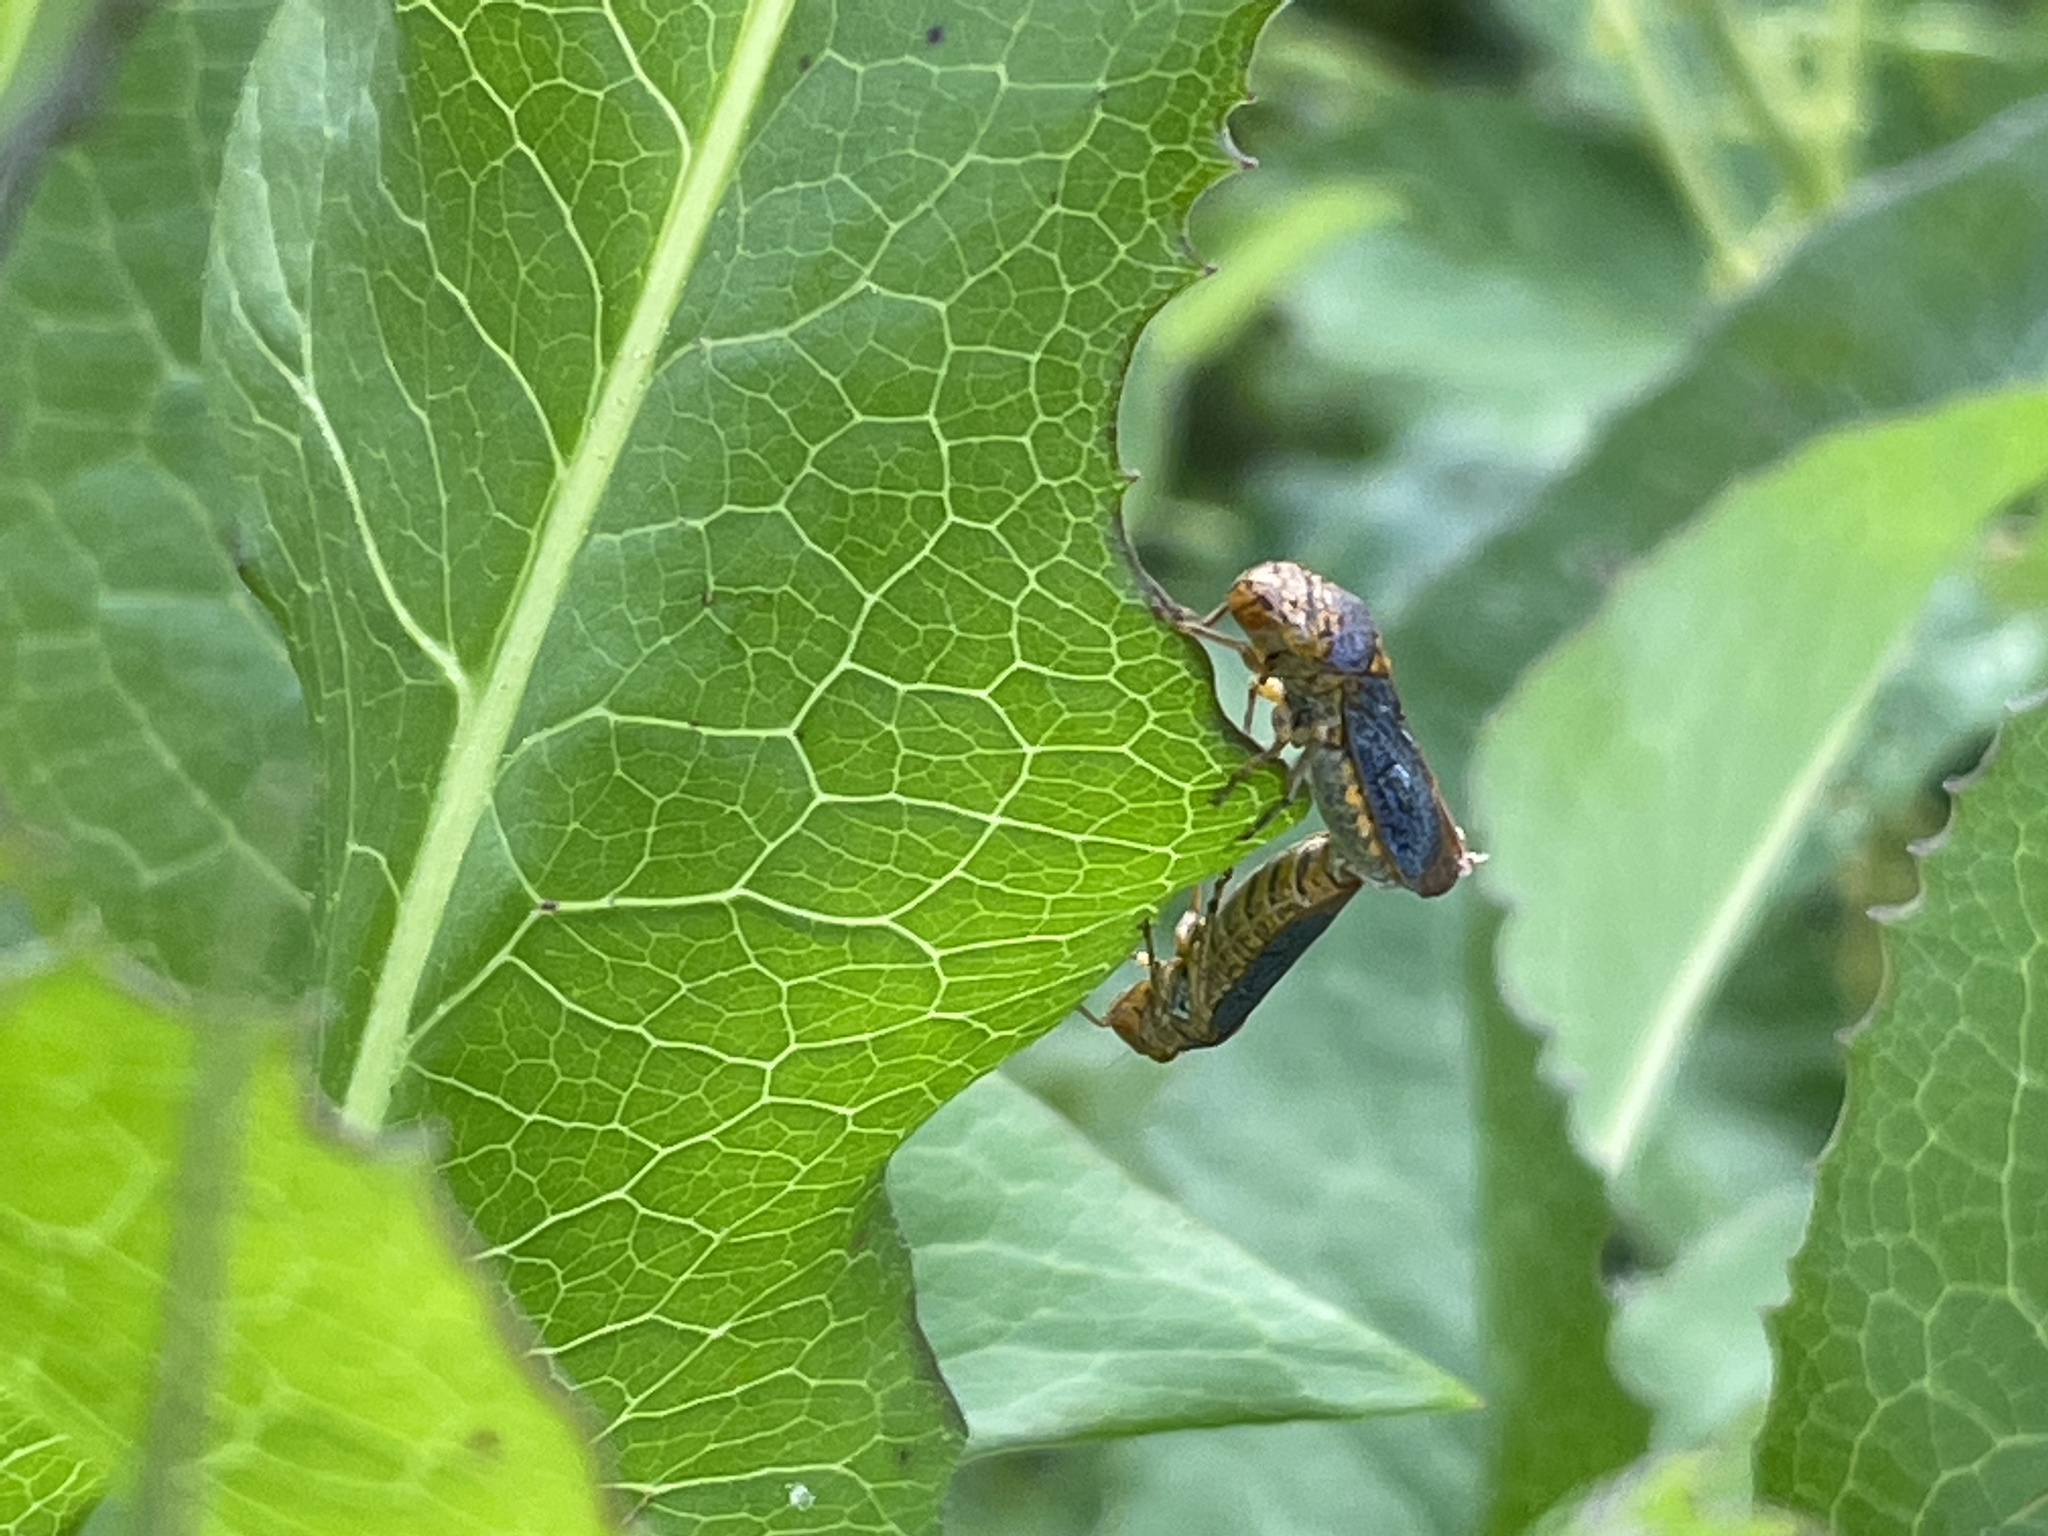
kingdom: Animalia
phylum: Arthropoda
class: Insecta
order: Hemiptera
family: Cicadellidae
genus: Oncometopia
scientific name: Oncometopia orbona
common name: Broad-headed sharpshooter
